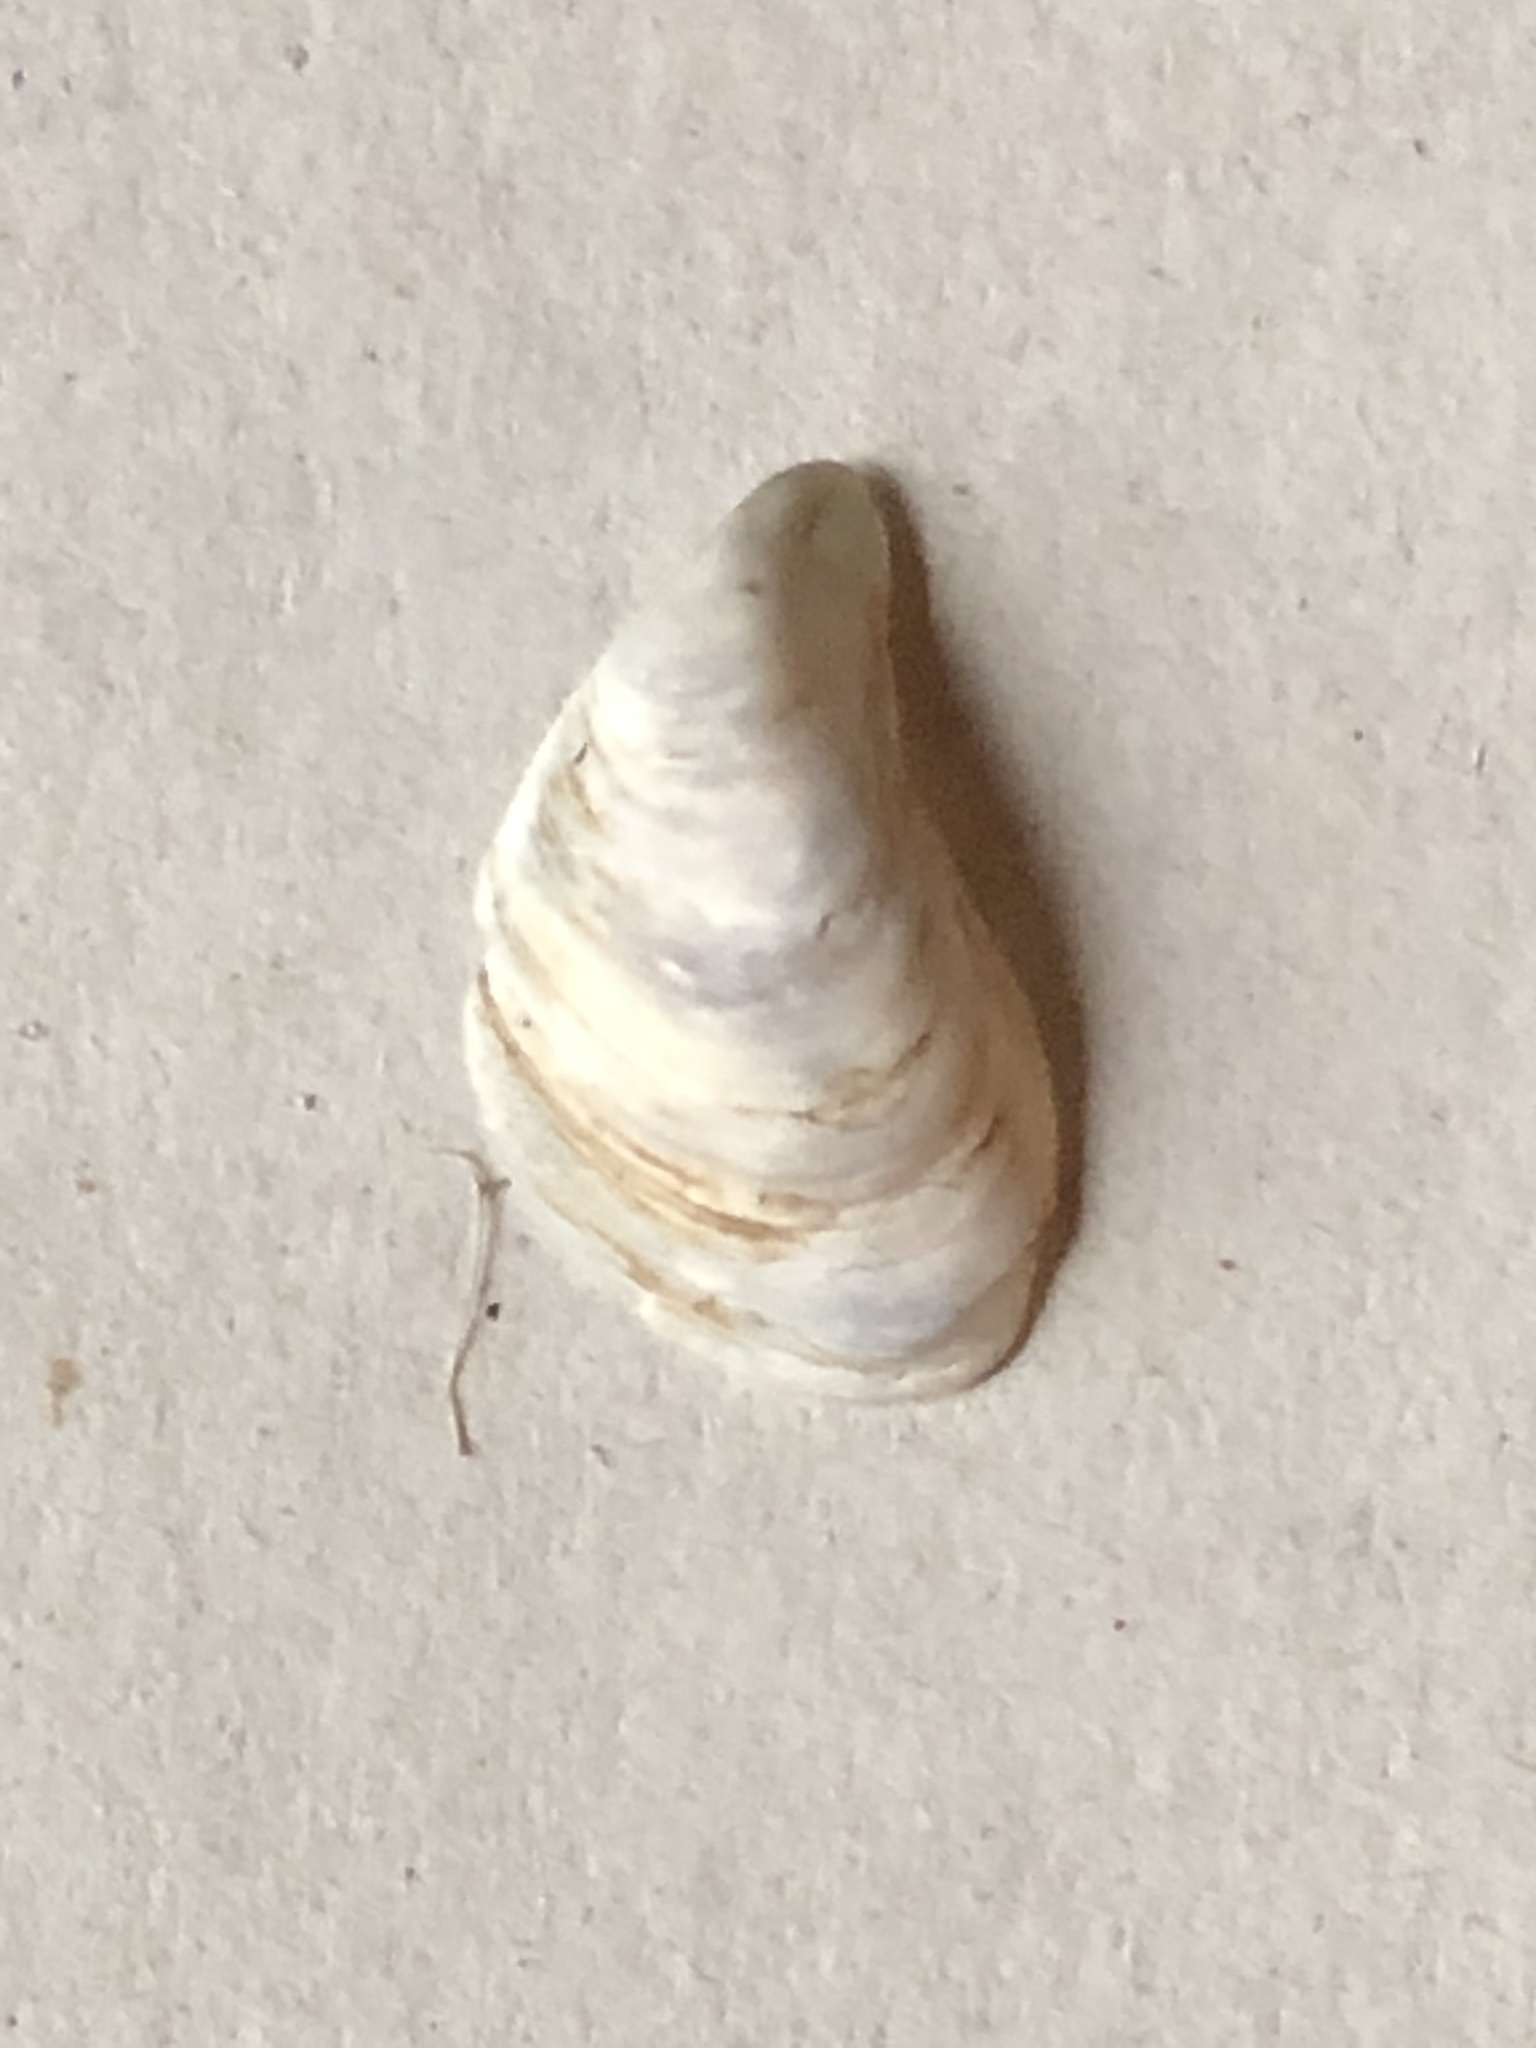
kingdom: Animalia
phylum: Mollusca
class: Bivalvia
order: Myida
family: Dreissenidae
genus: Dreissena
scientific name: Dreissena bugensis
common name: Quagga mussel
